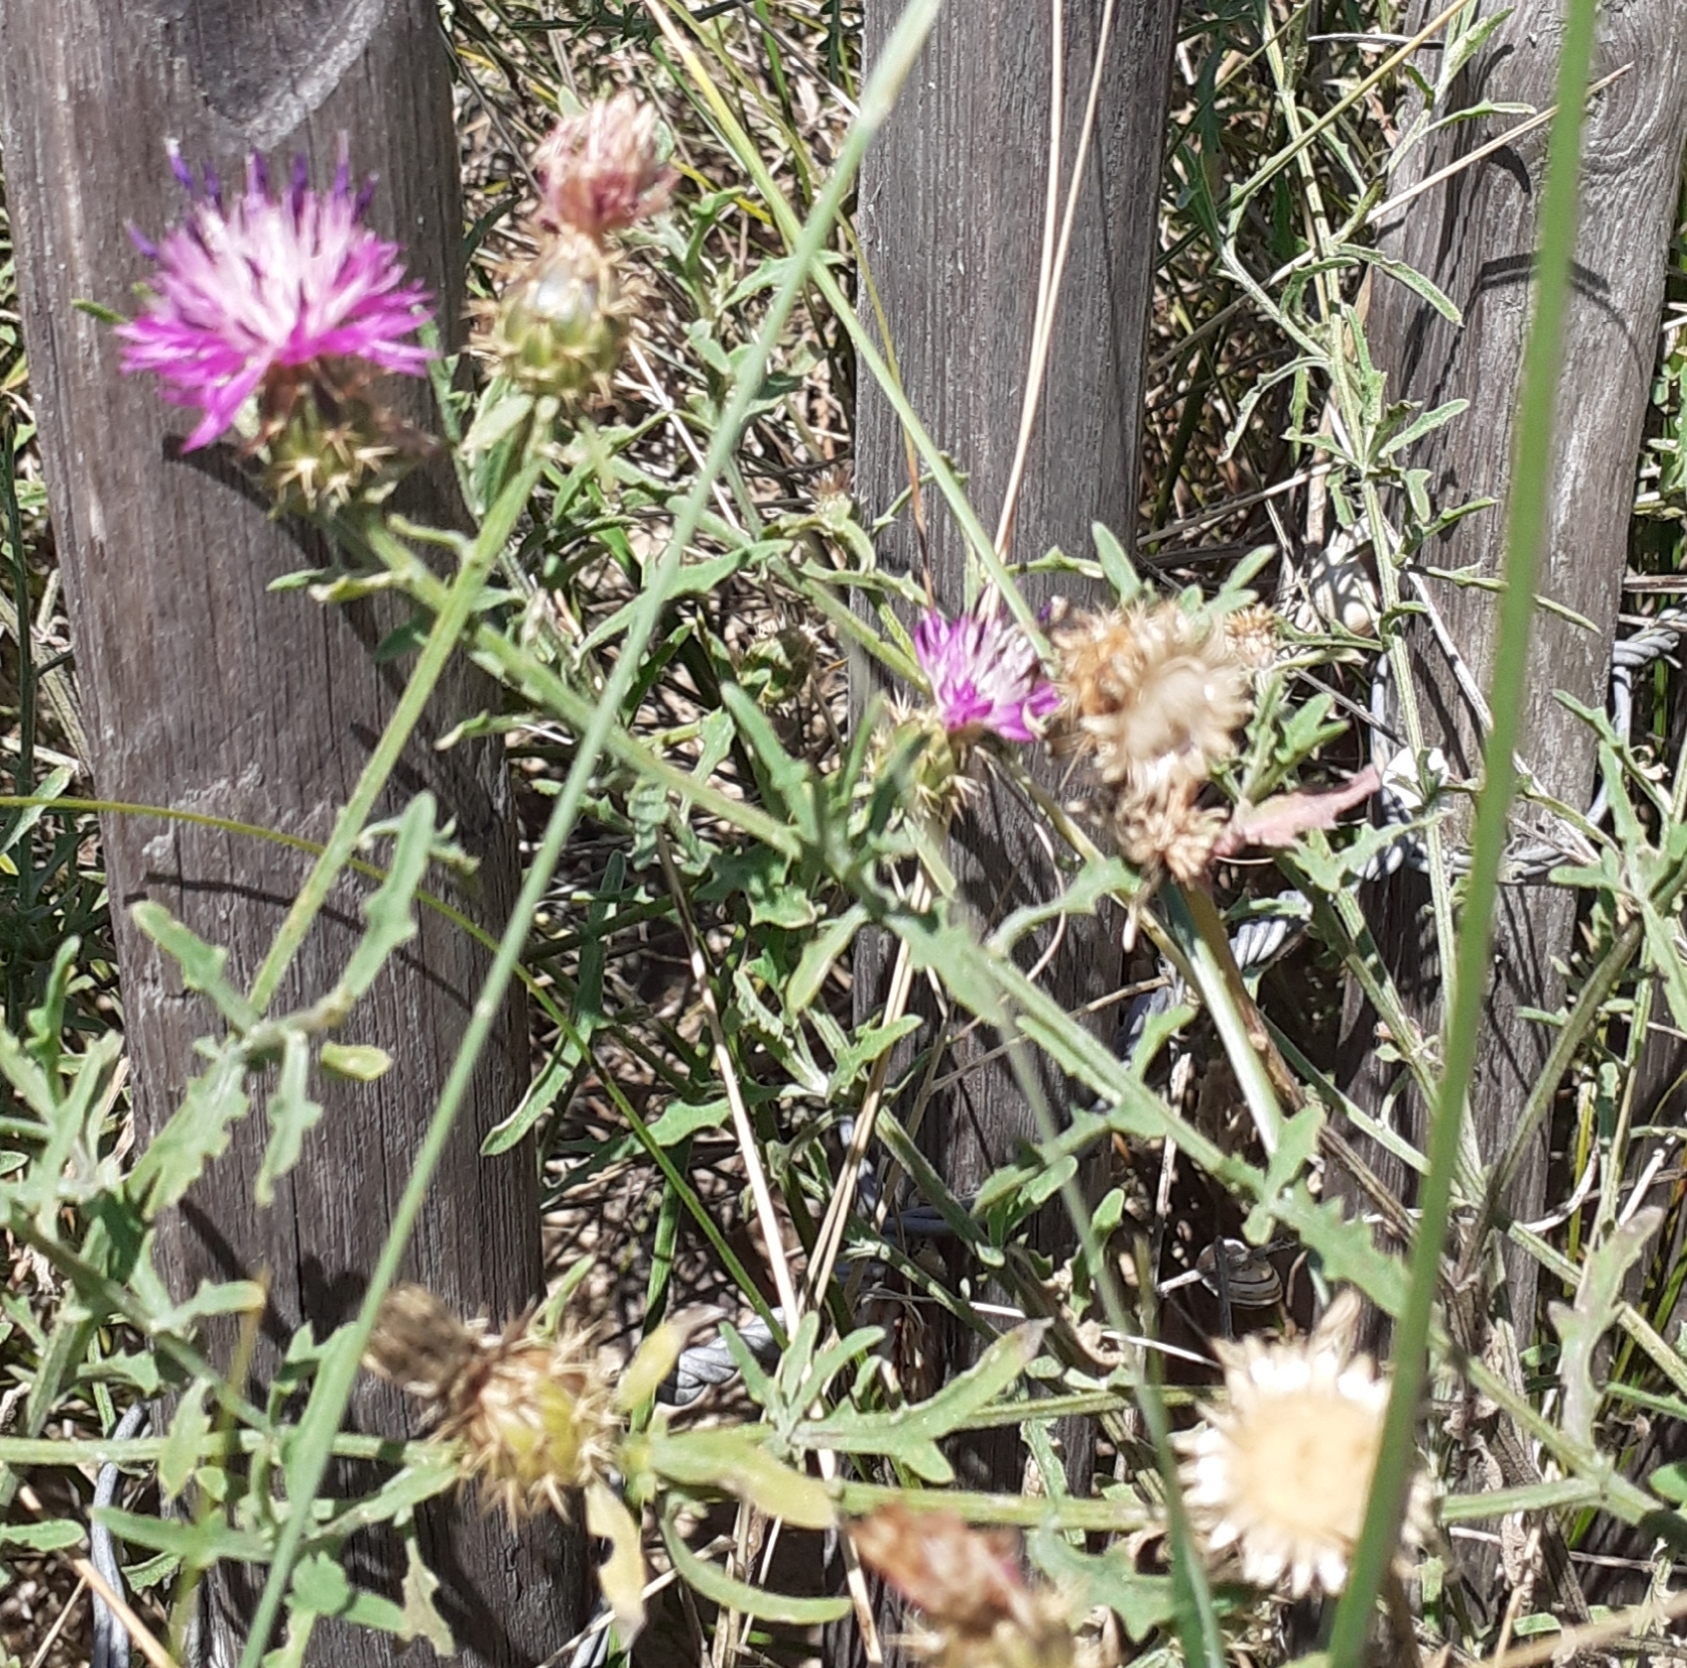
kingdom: Plantae
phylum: Tracheophyta
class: Magnoliopsida
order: Asterales
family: Asteraceae
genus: Centaurea
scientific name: Centaurea aspera
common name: Rough star-thistle
